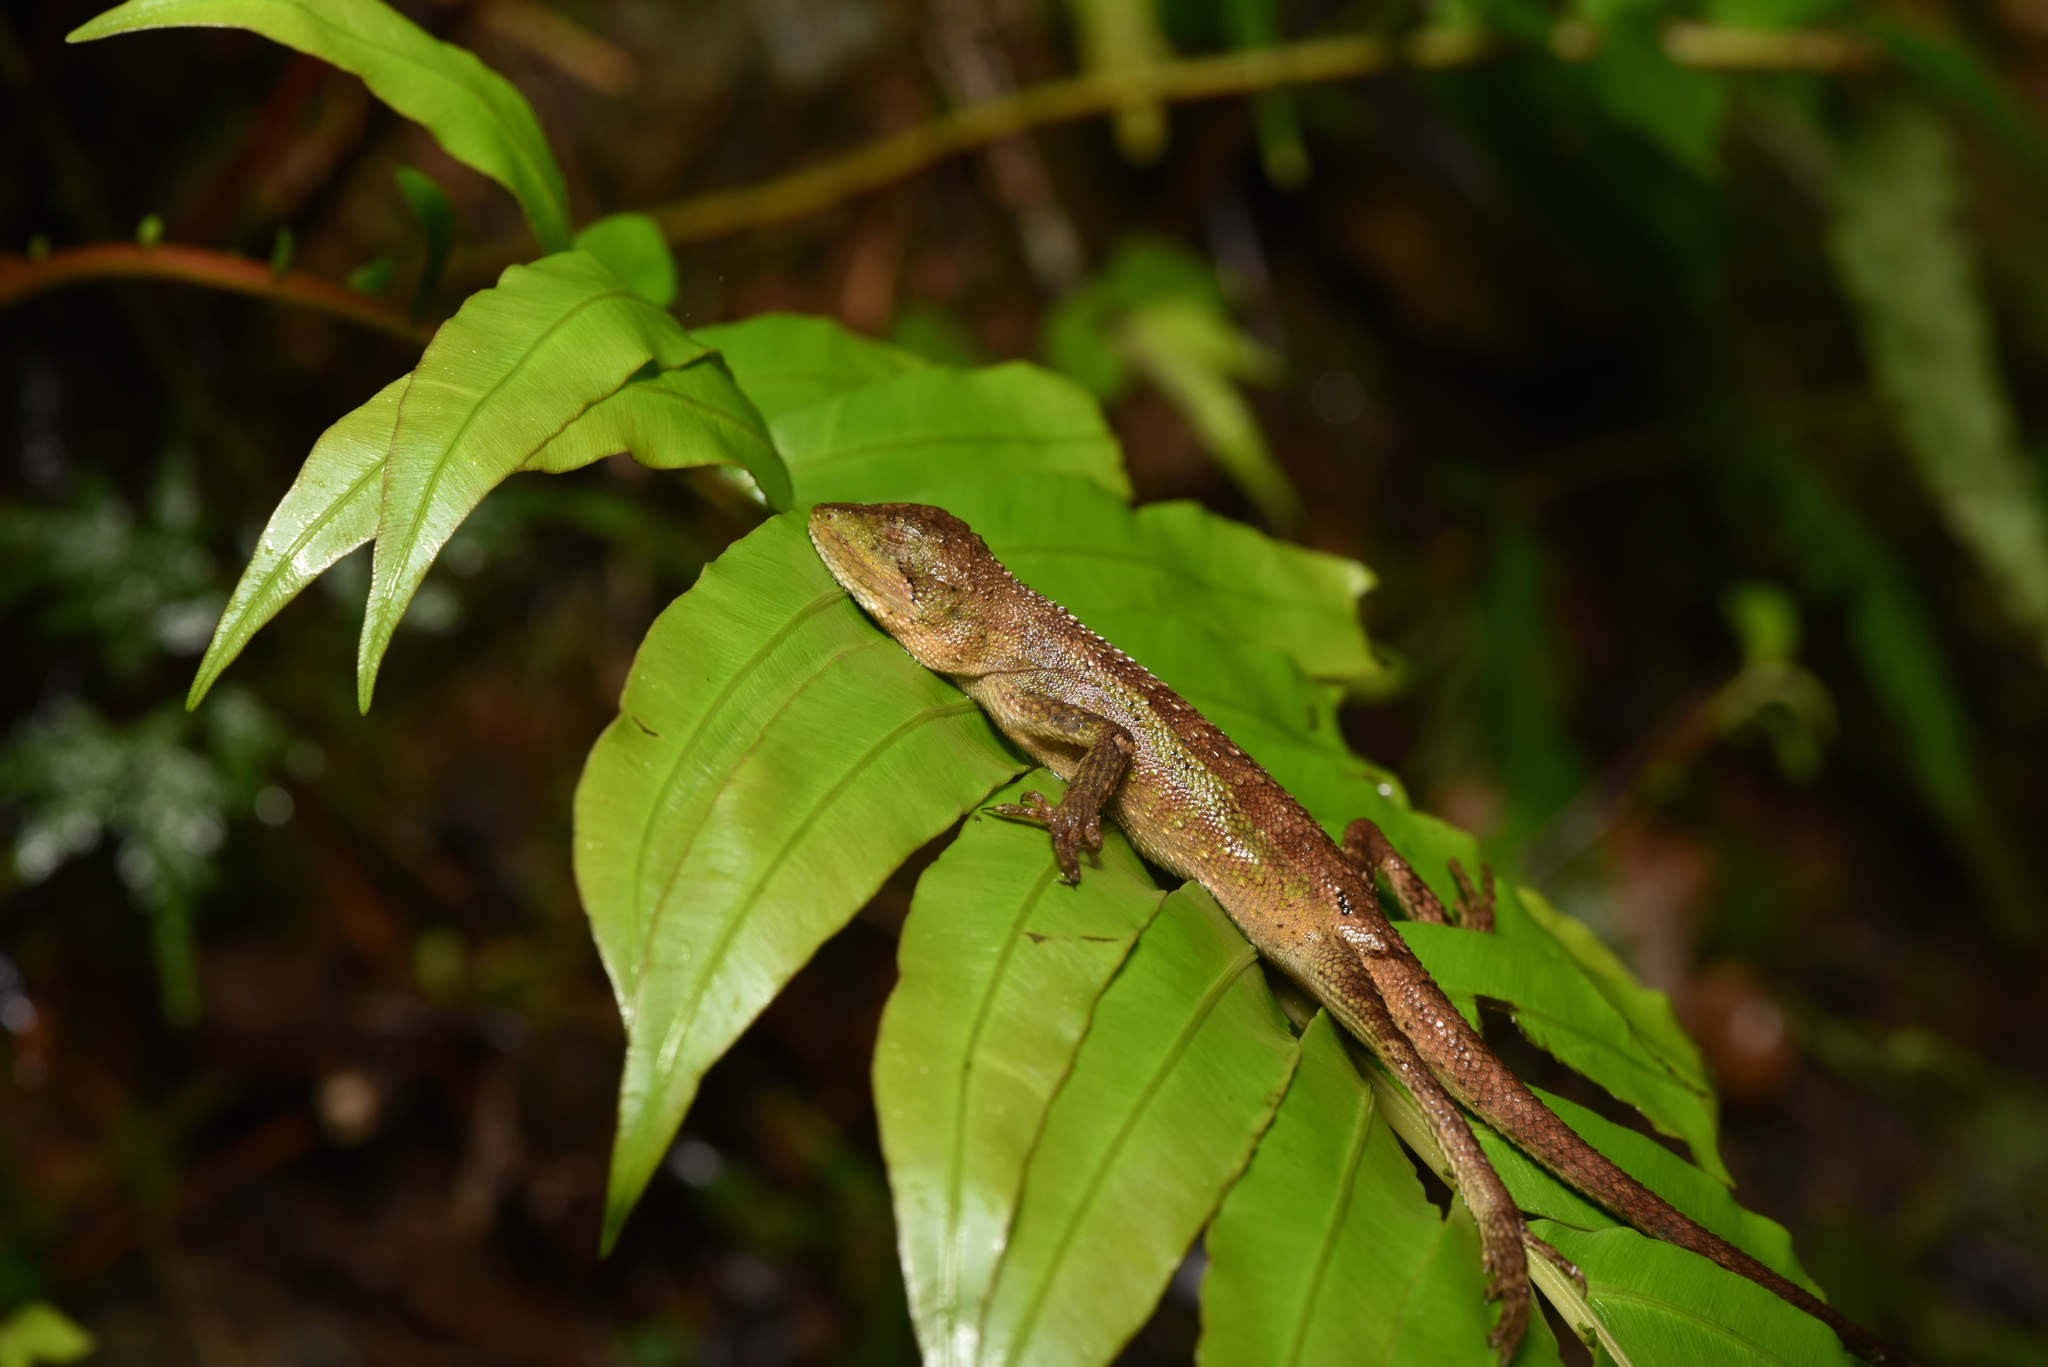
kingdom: Animalia
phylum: Chordata
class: Squamata
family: Agamidae
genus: Diploderma
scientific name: Diploderma swinhonis
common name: Taiwan japalure
